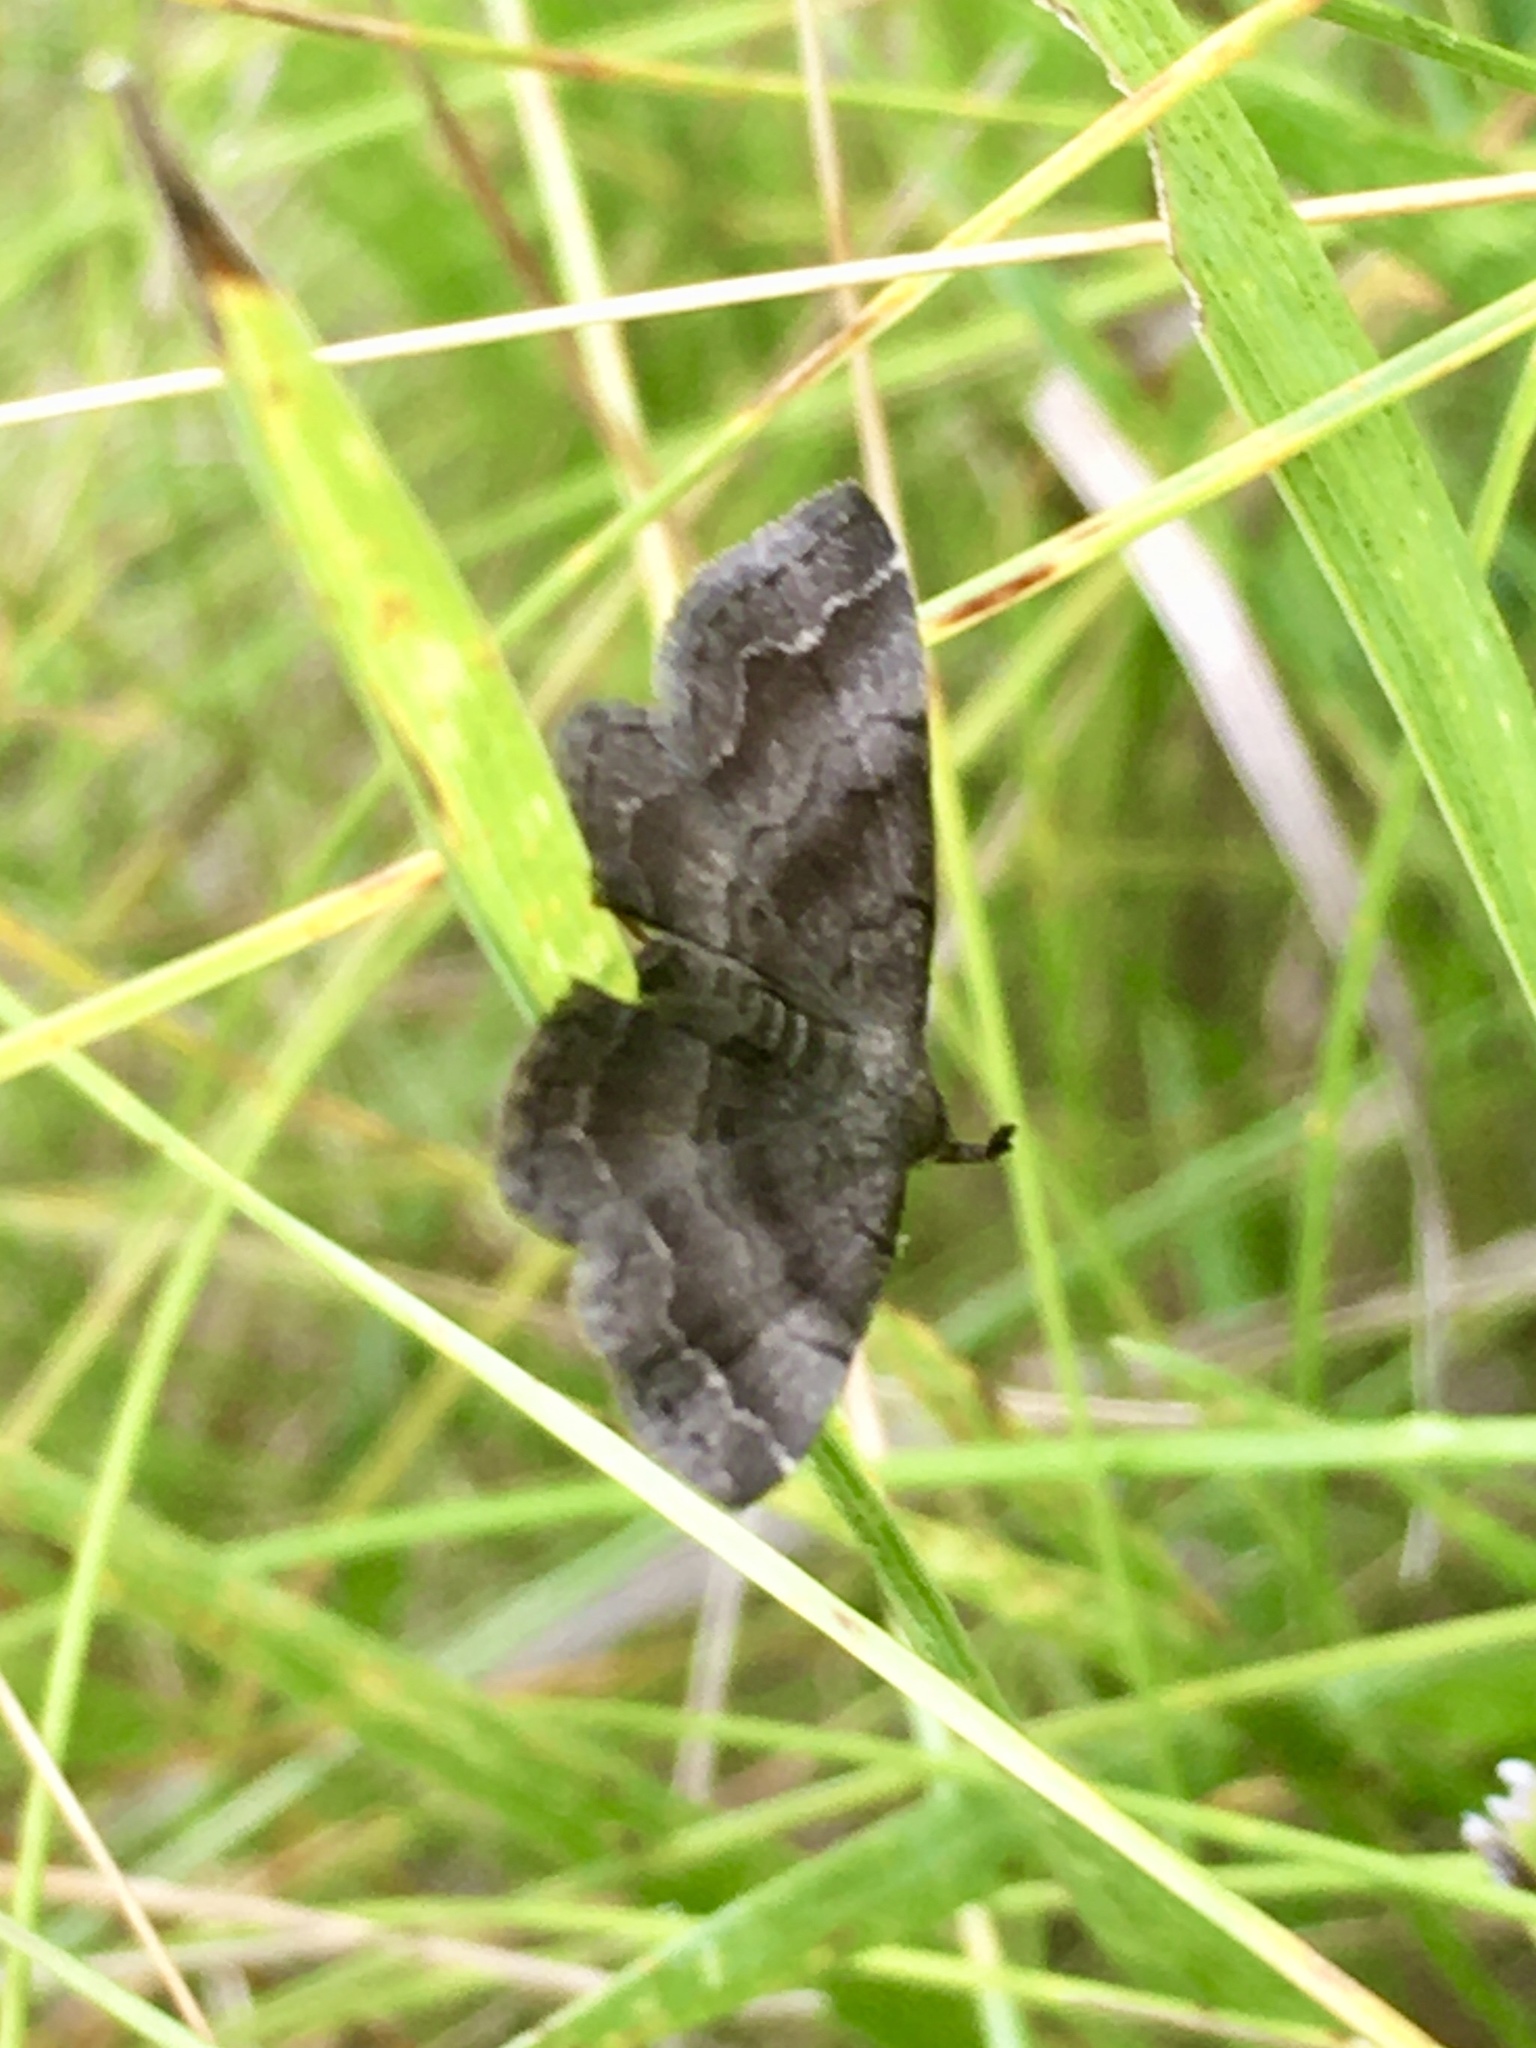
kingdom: Animalia
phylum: Arthropoda
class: Insecta
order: Lepidoptera
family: Erebidae
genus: Phalaenostola
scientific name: Phalaenostola larentioides
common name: Black-banded owlet
